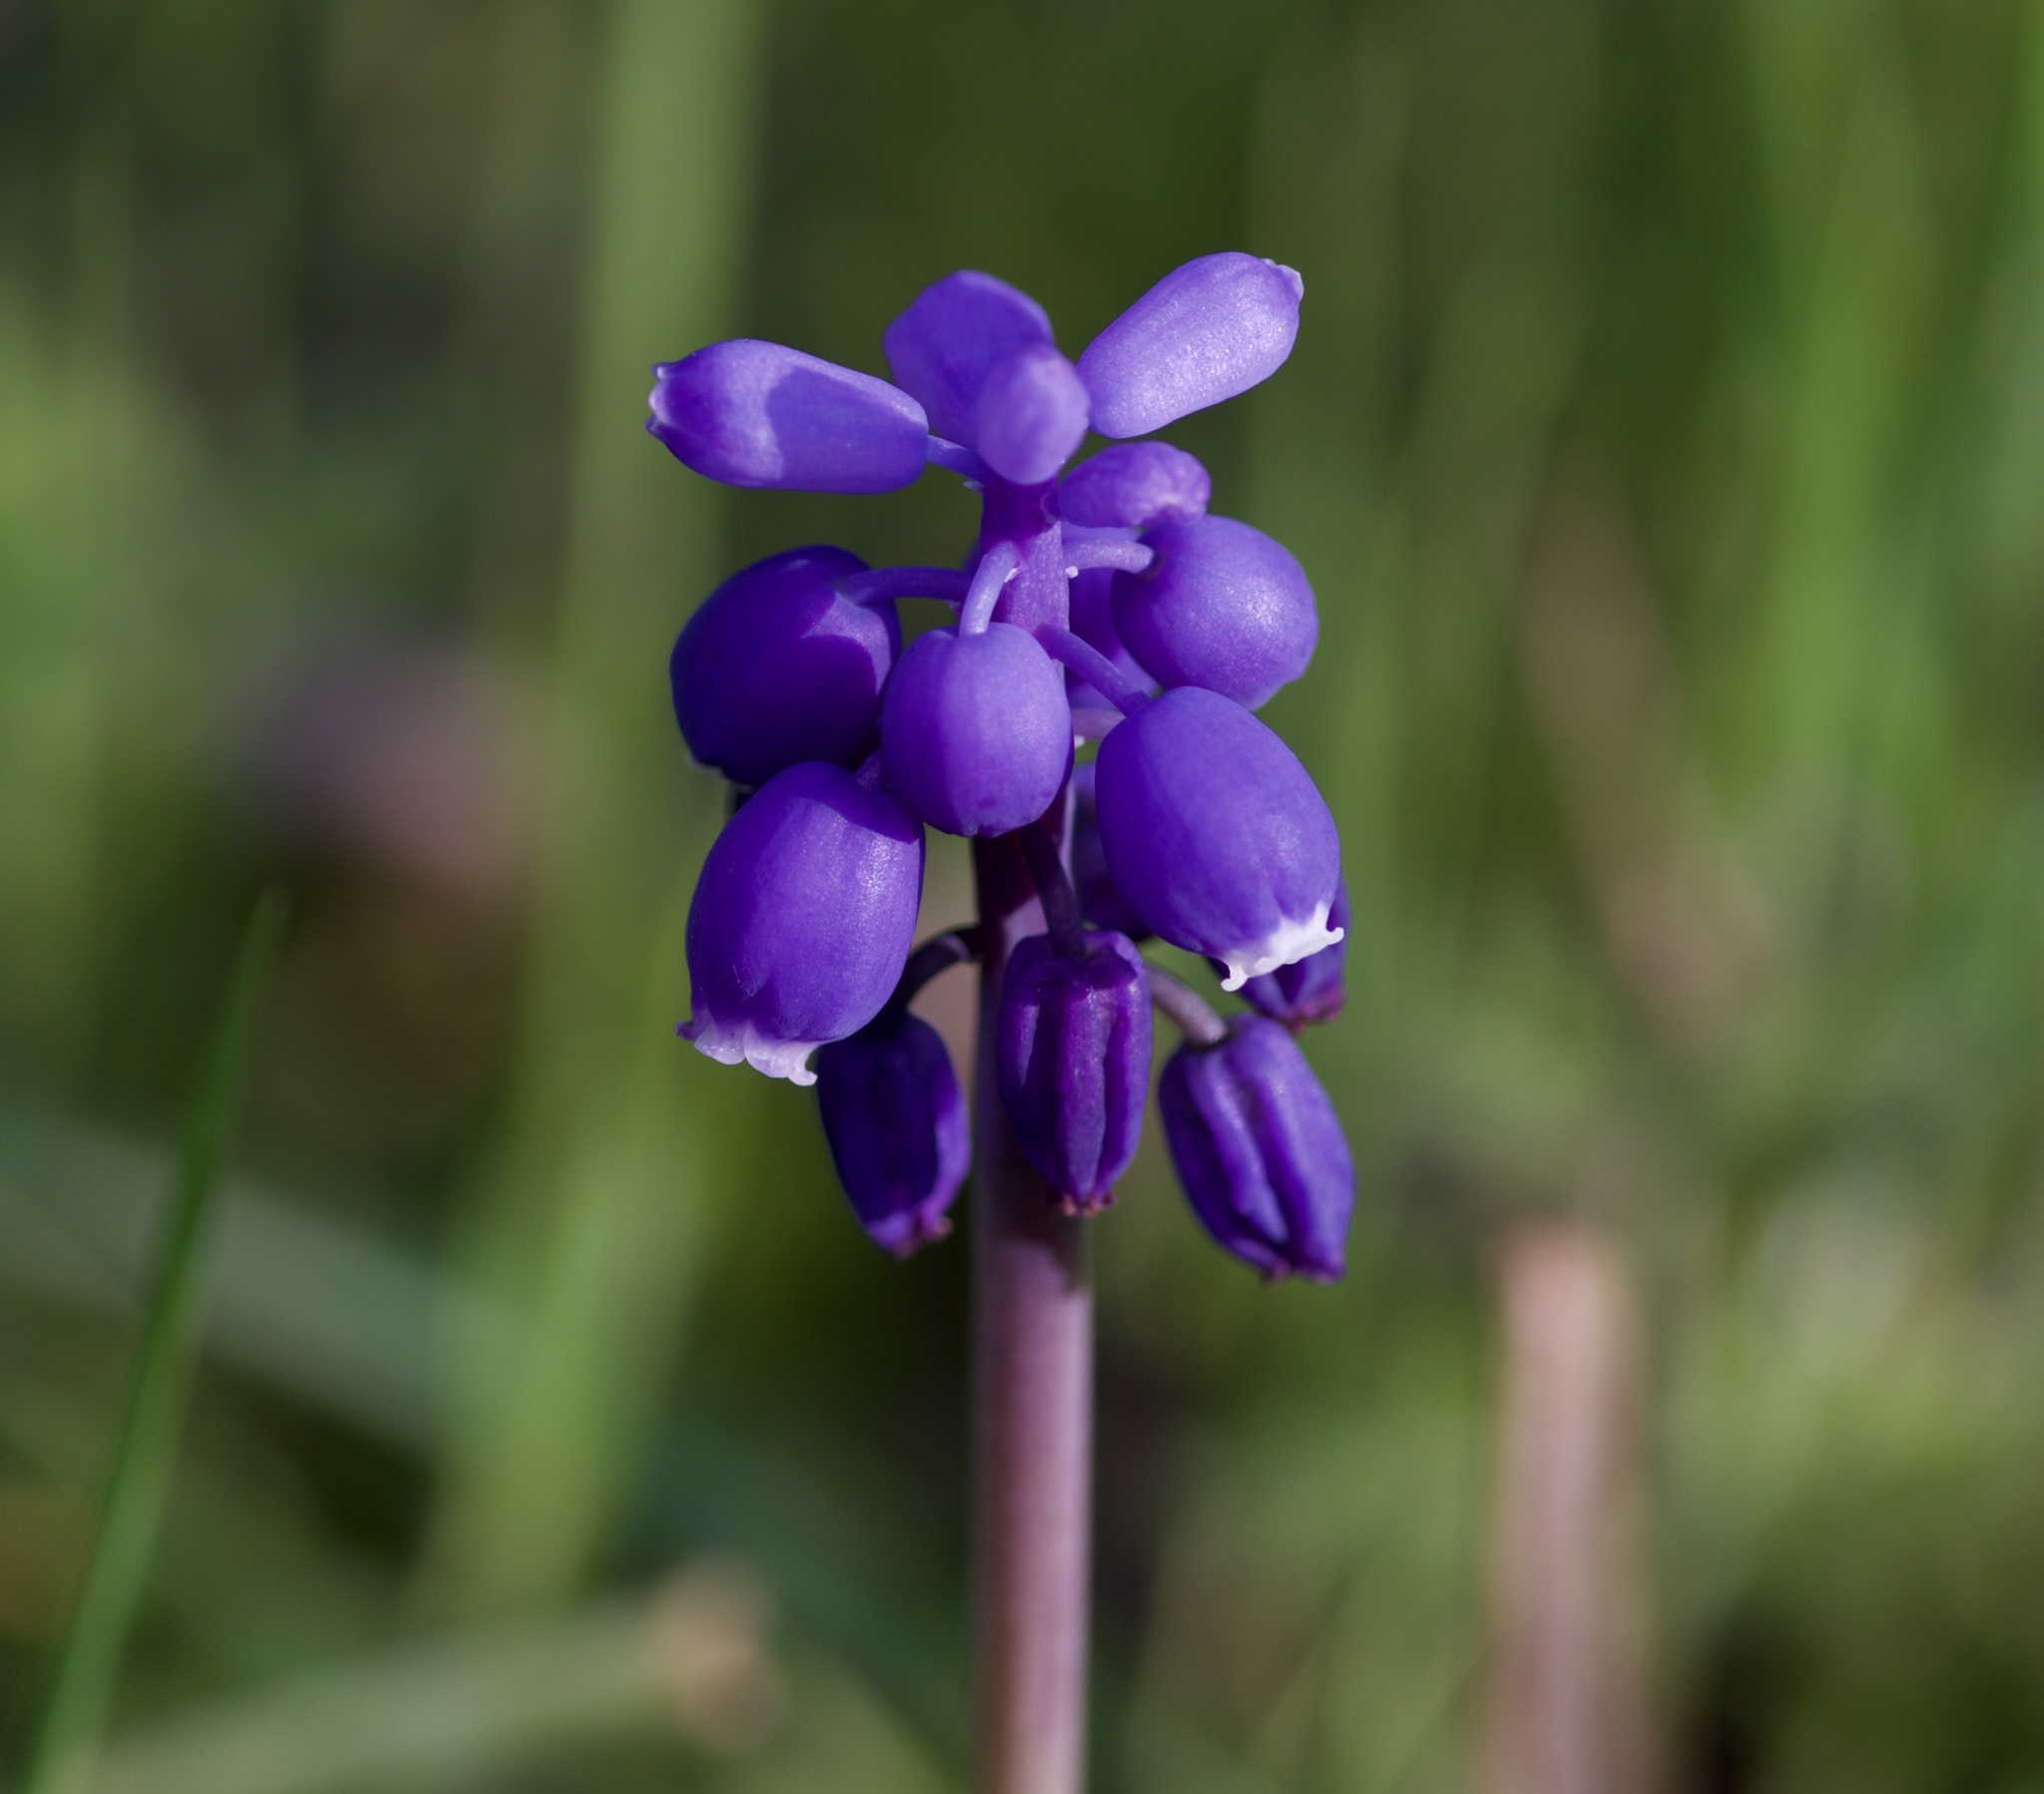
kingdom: Plantae
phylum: Tracheophyta
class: Liliopsida
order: Asparagales
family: Asparagaceae
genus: Muscari
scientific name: Muscari neglectum
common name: Grape-hyacinth
